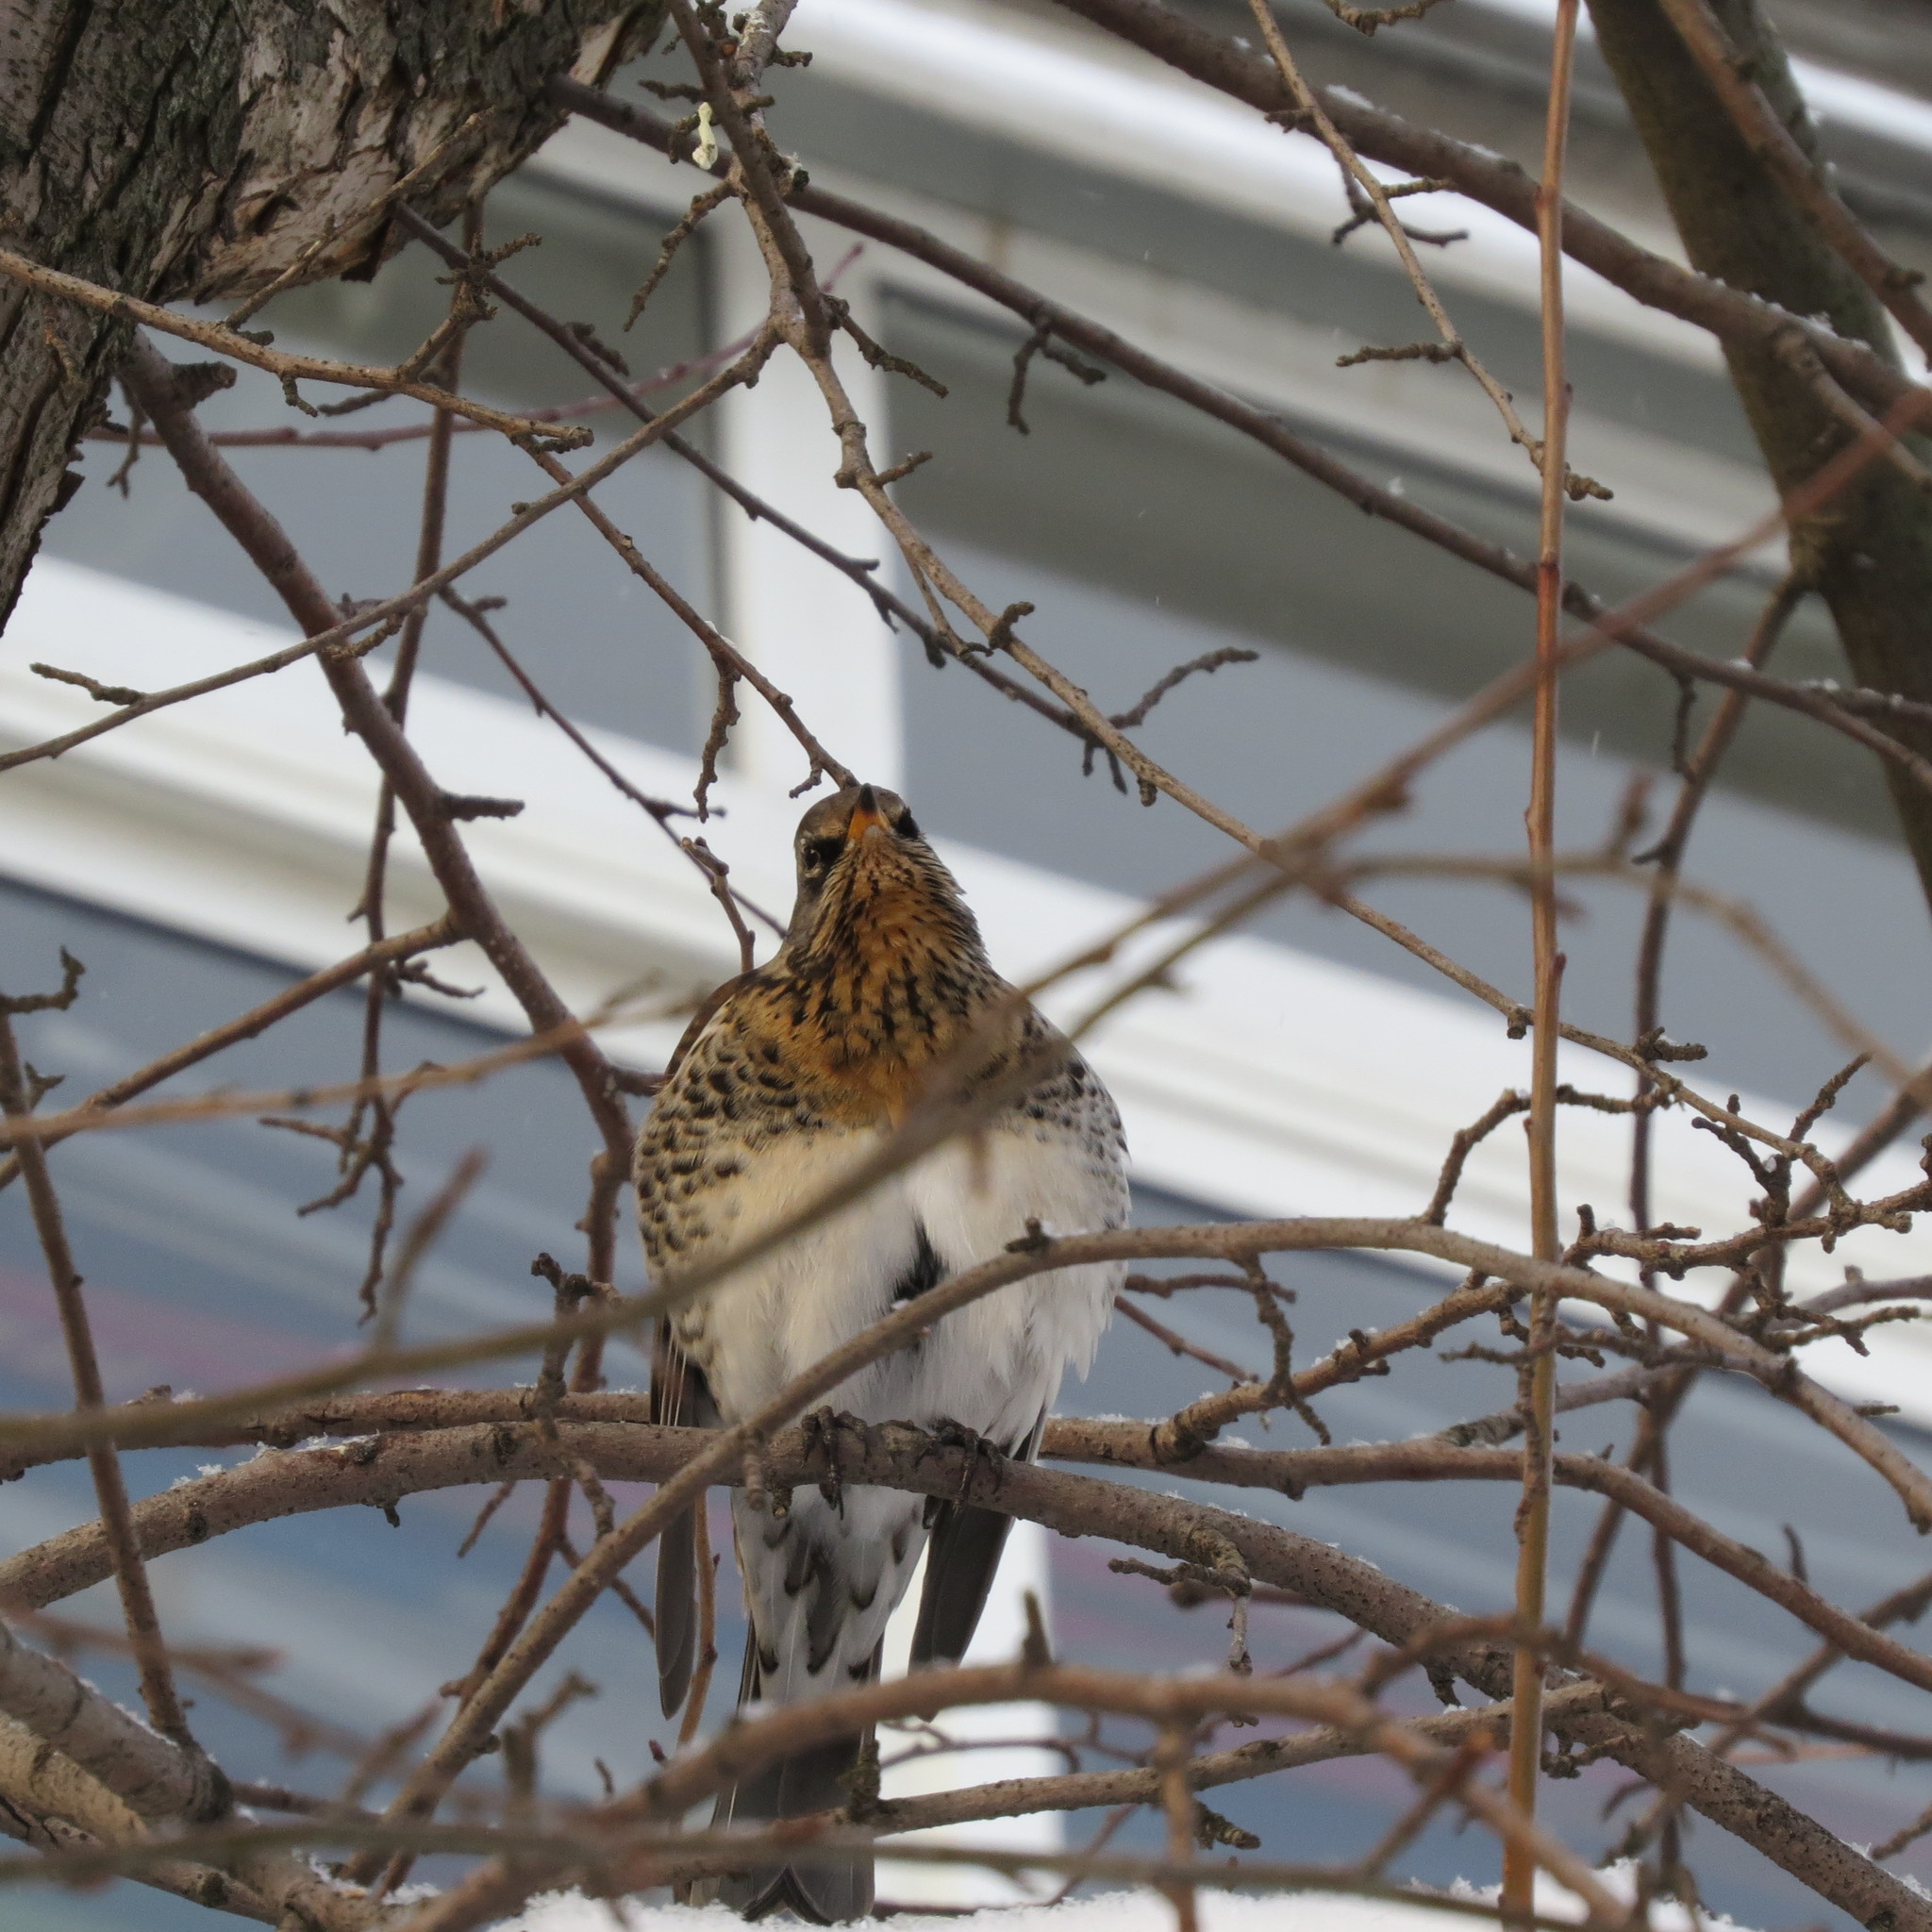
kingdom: Animalia
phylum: Chordata
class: Aves
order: Passeriformes
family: Turdidae
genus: Turdus
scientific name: Turdus pilaris
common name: Fieldfare
